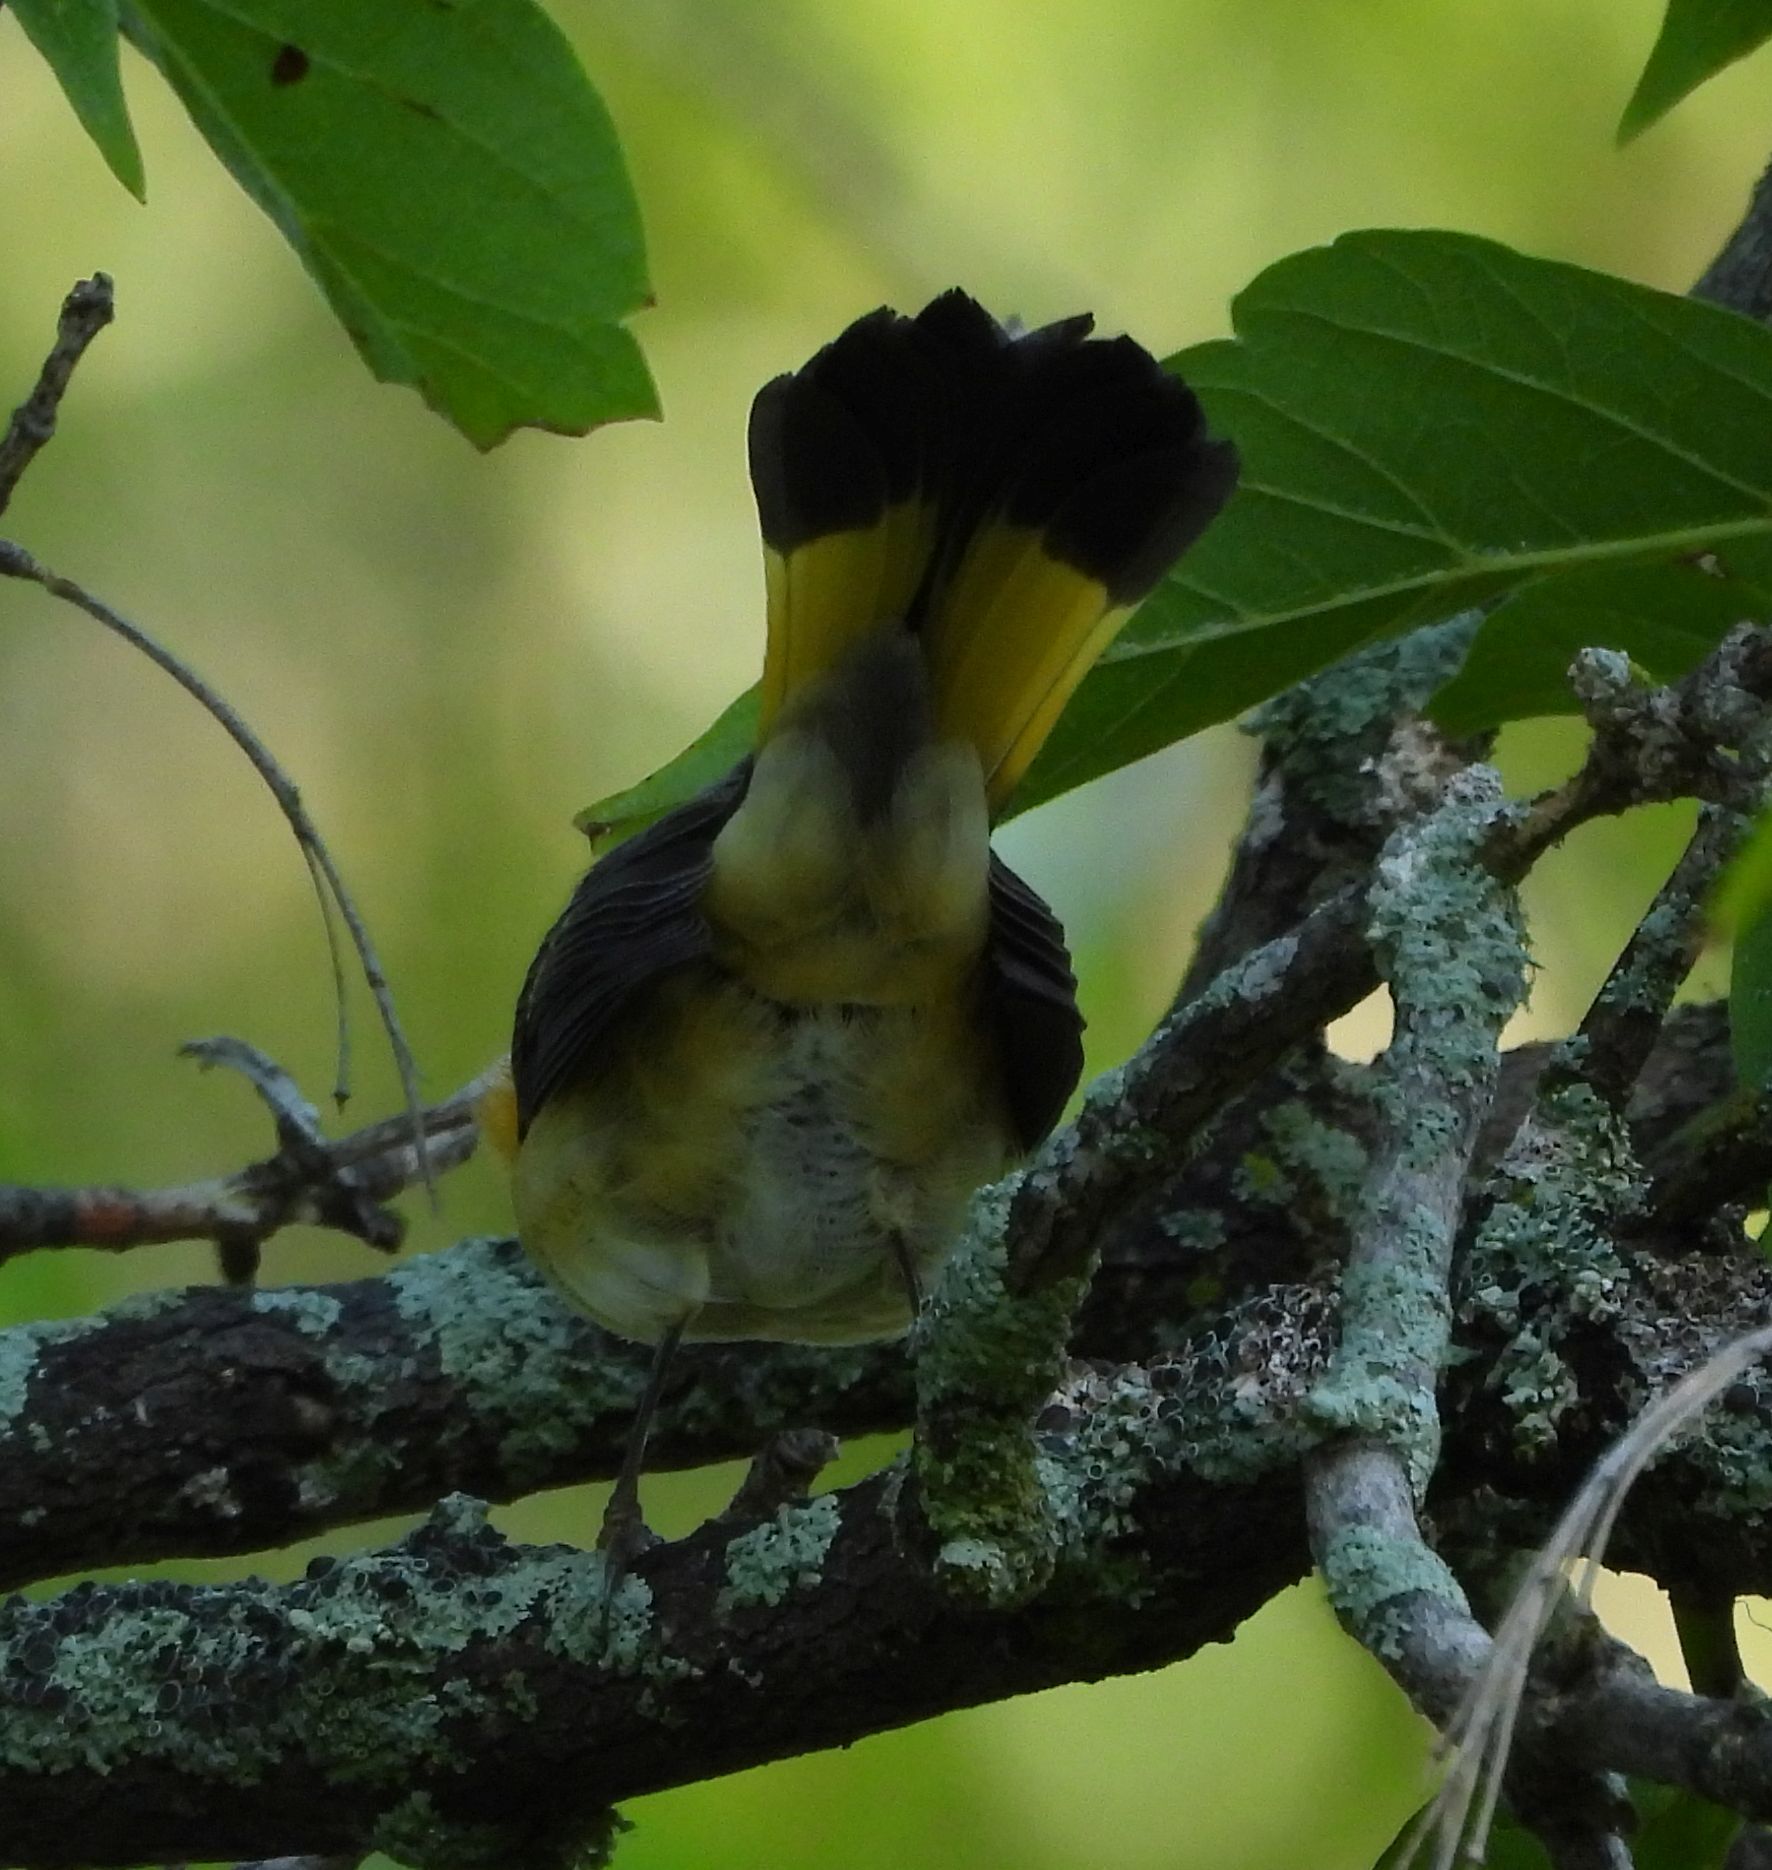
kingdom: Animalia
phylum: Chordata
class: Aves
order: Passeriformes
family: Parulidae
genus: Setophaga
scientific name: Setophaga ruticilla
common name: American redstart
